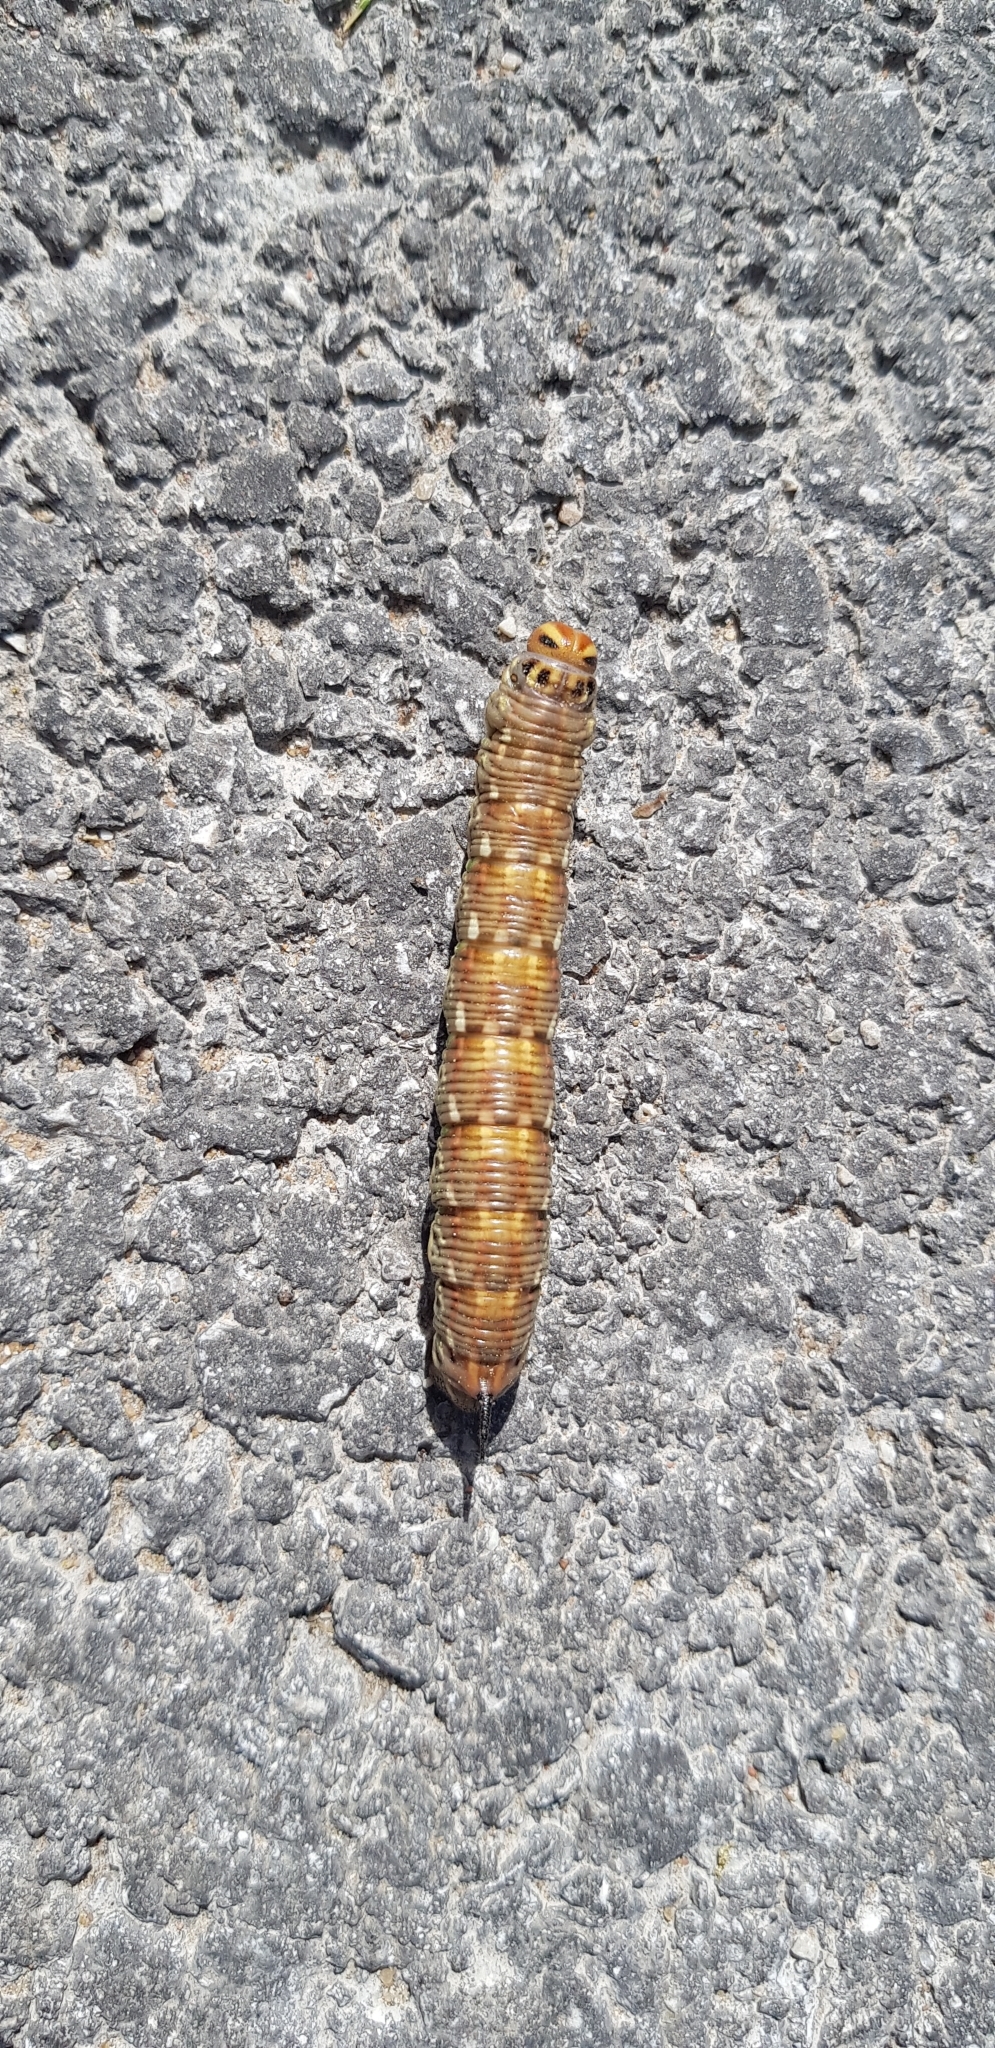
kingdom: Animalia
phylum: Arthropoda
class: Insecta
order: Lepidoptera
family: Sphingidae
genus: Sphinx
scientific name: Sphinx pinastri
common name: Pine hawk-moth
